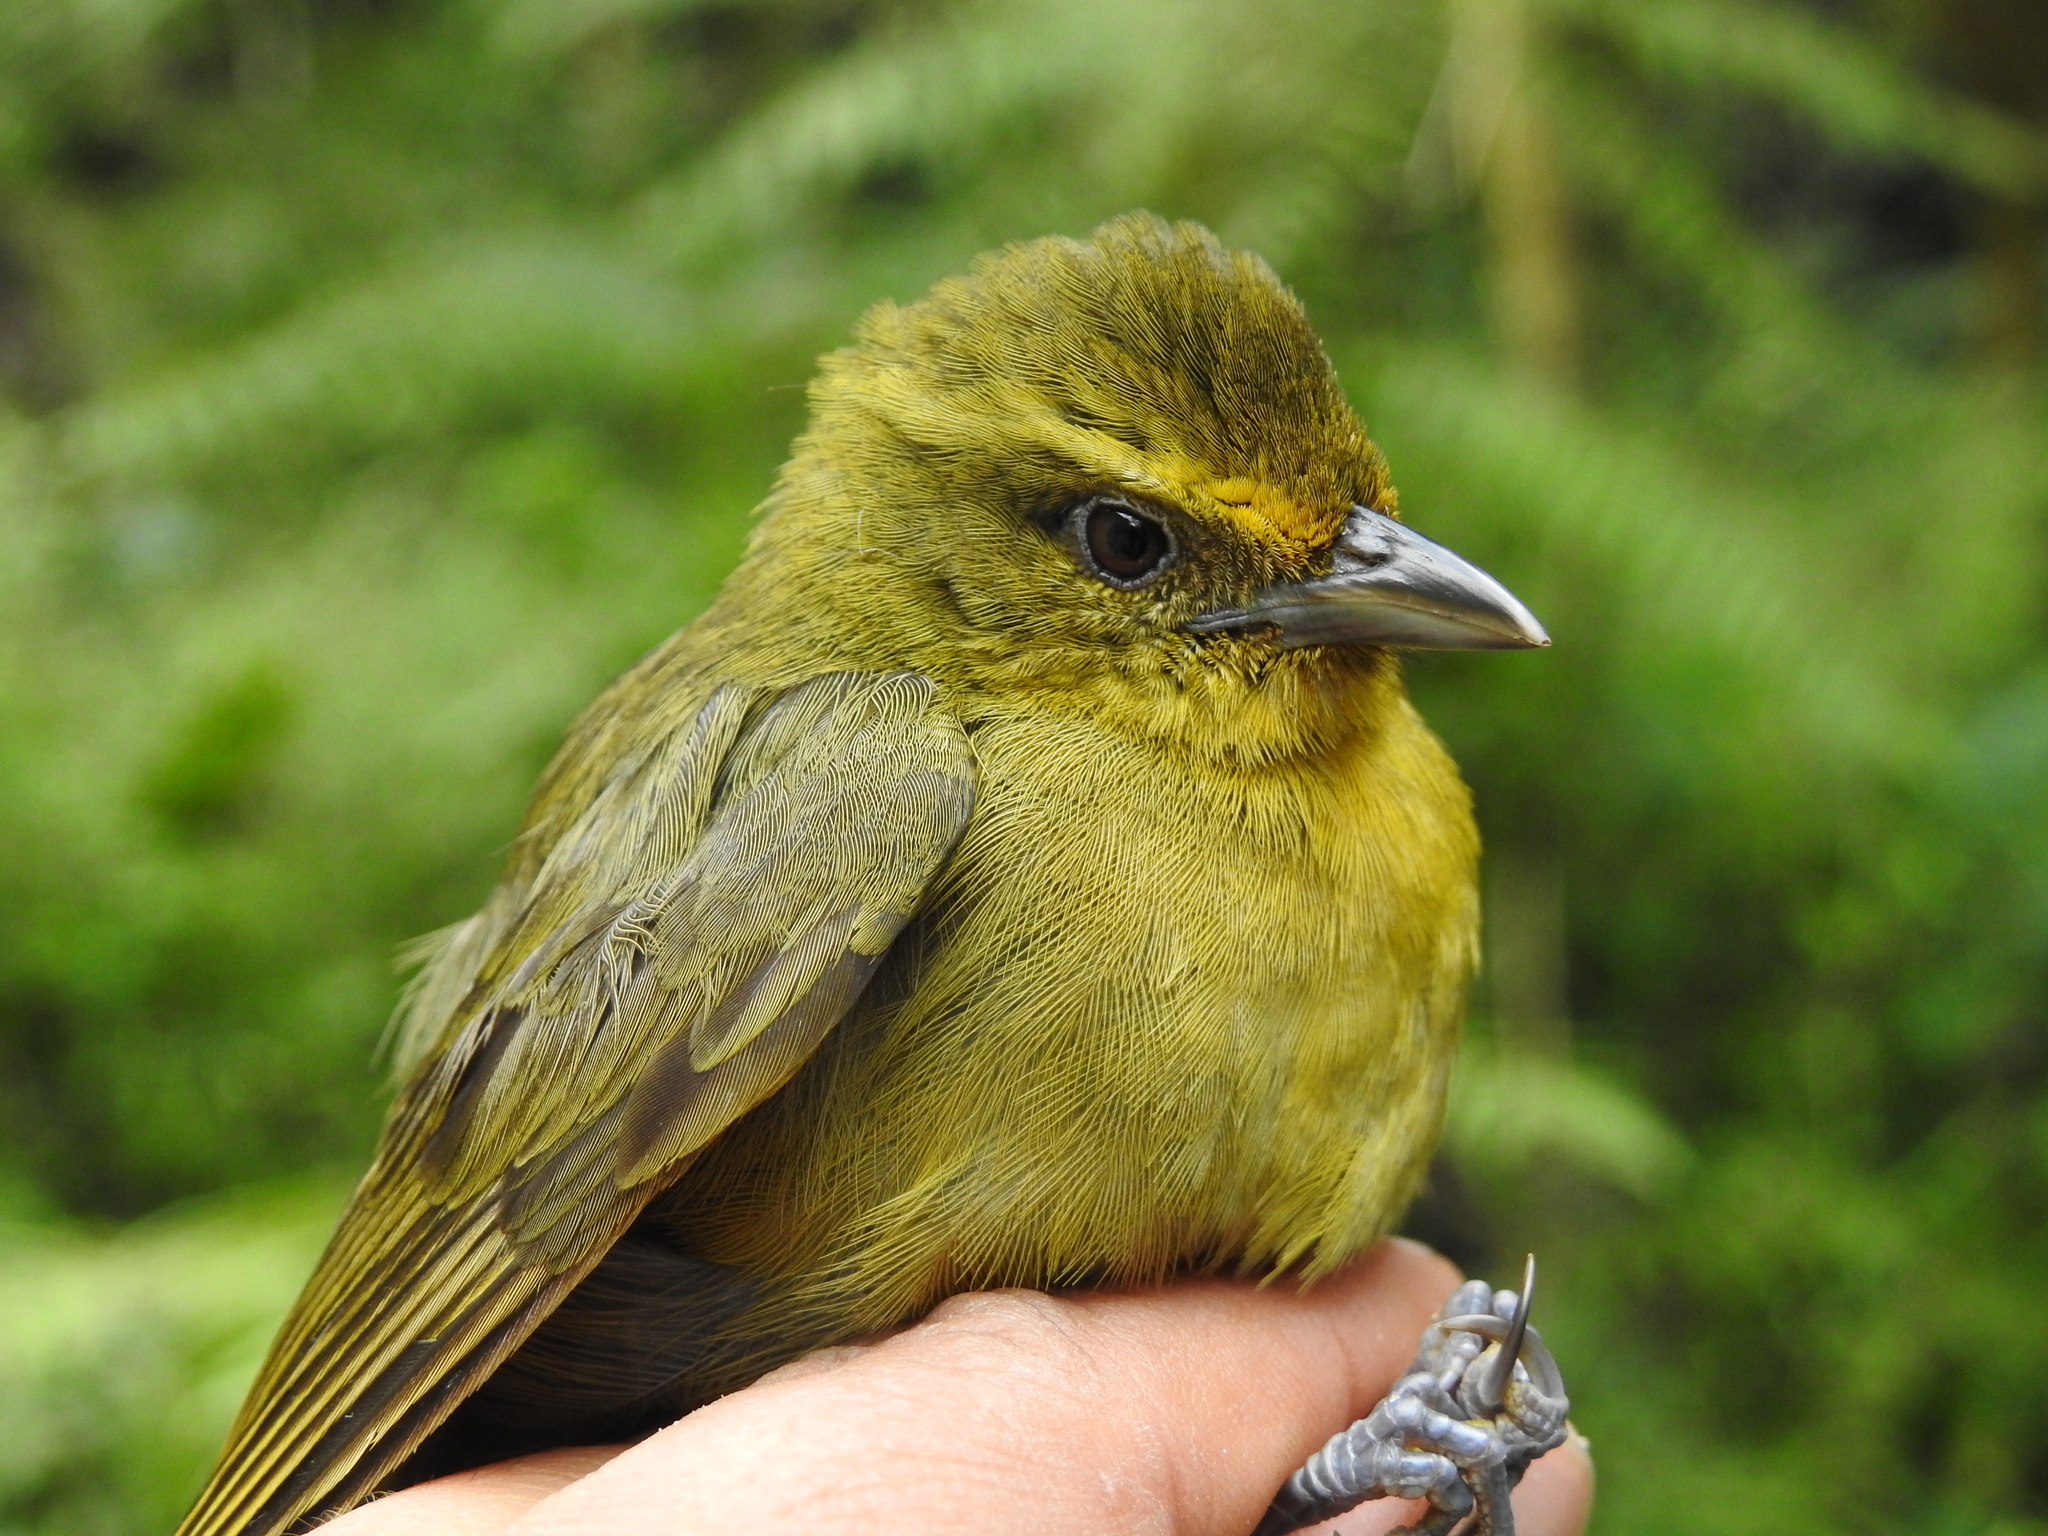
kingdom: Animalia
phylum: Chordata
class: Aves
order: Passeriformes
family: Thraupidae
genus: Sphenopsis
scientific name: Sphenopsis frontalis
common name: Oleaginous hemispingus
